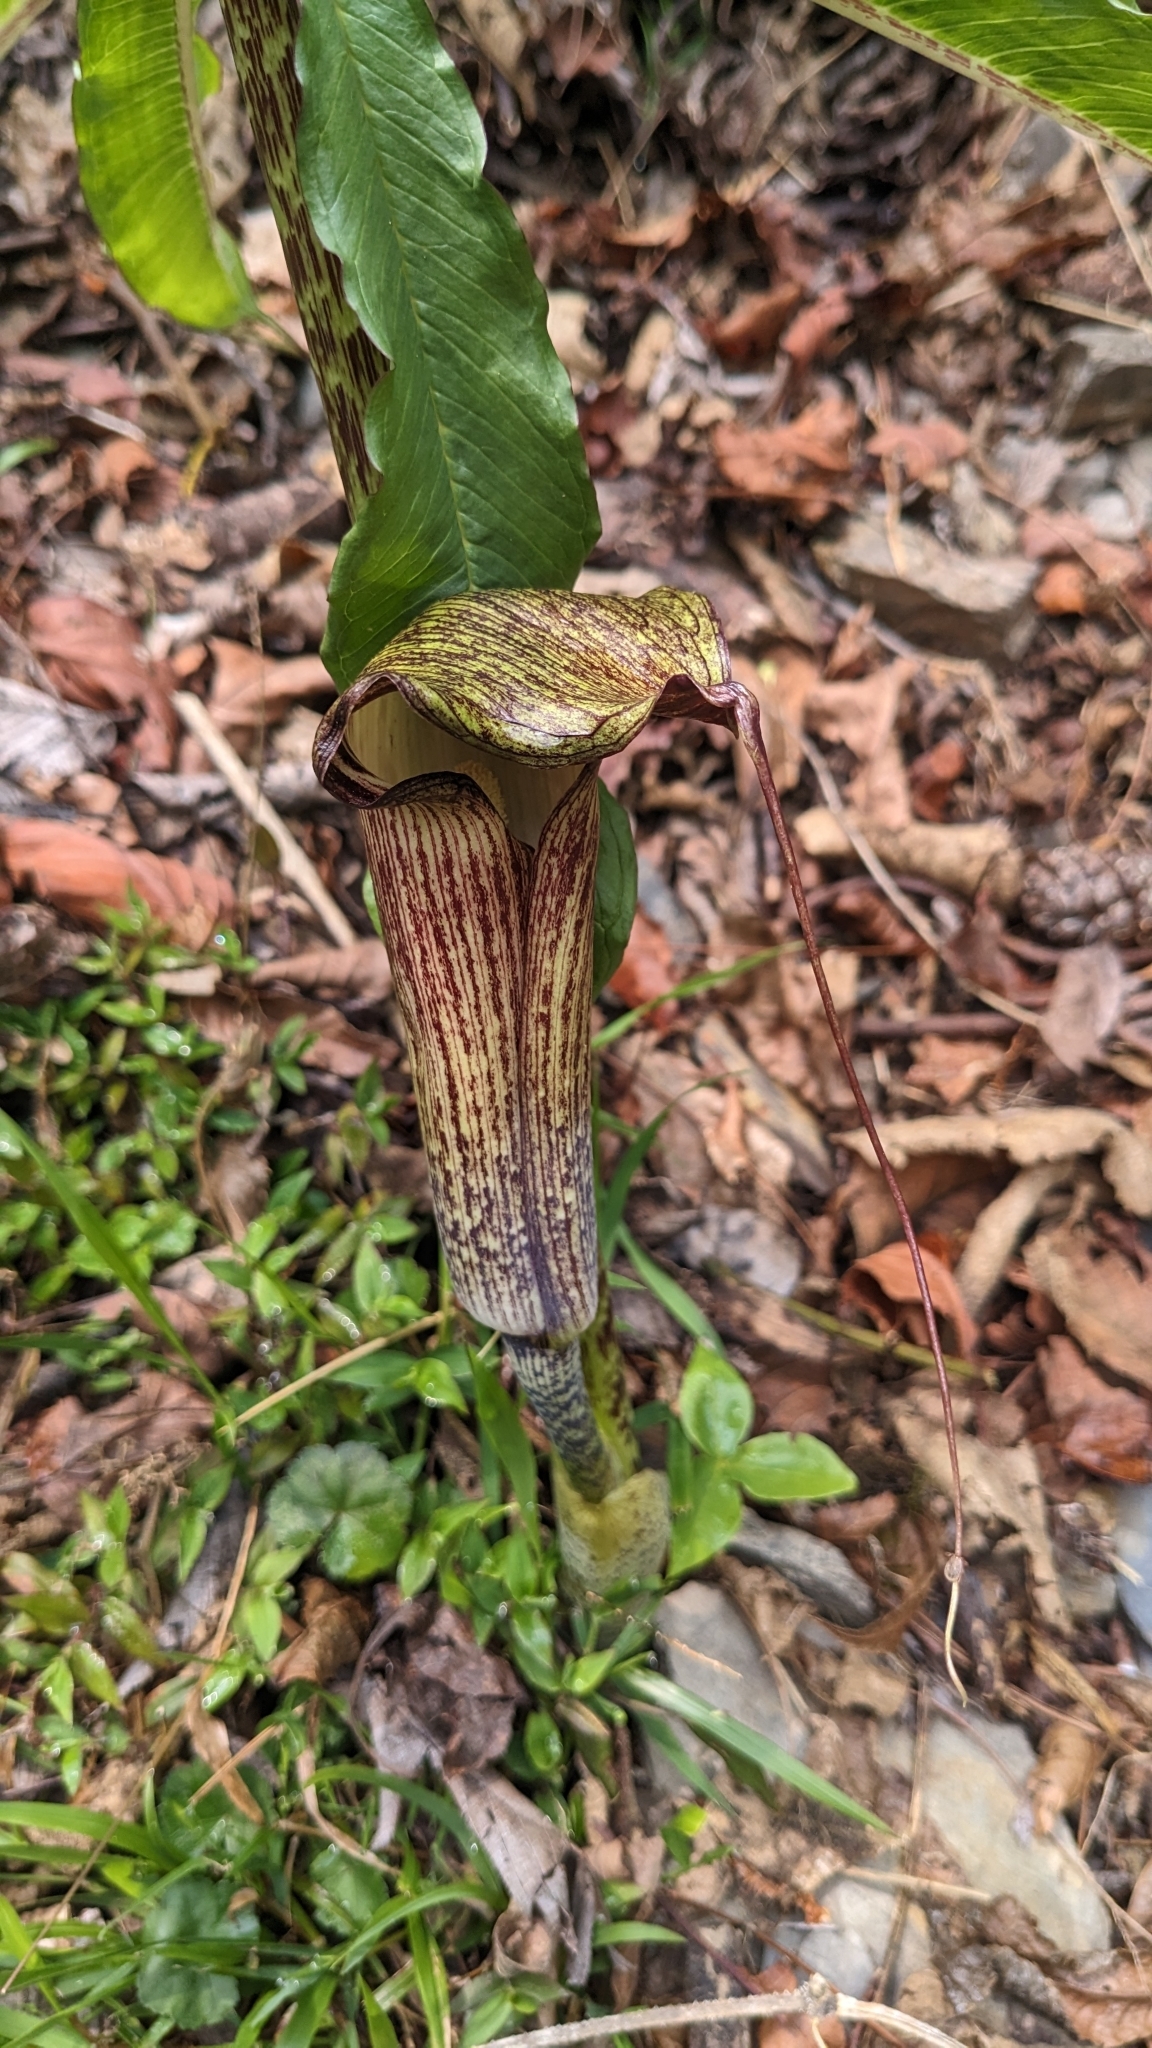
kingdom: Plantae
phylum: Tracheophyta
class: Liliopsida
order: Alismatales
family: Araceae
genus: Arisaema
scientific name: Arisaema taiwanense
